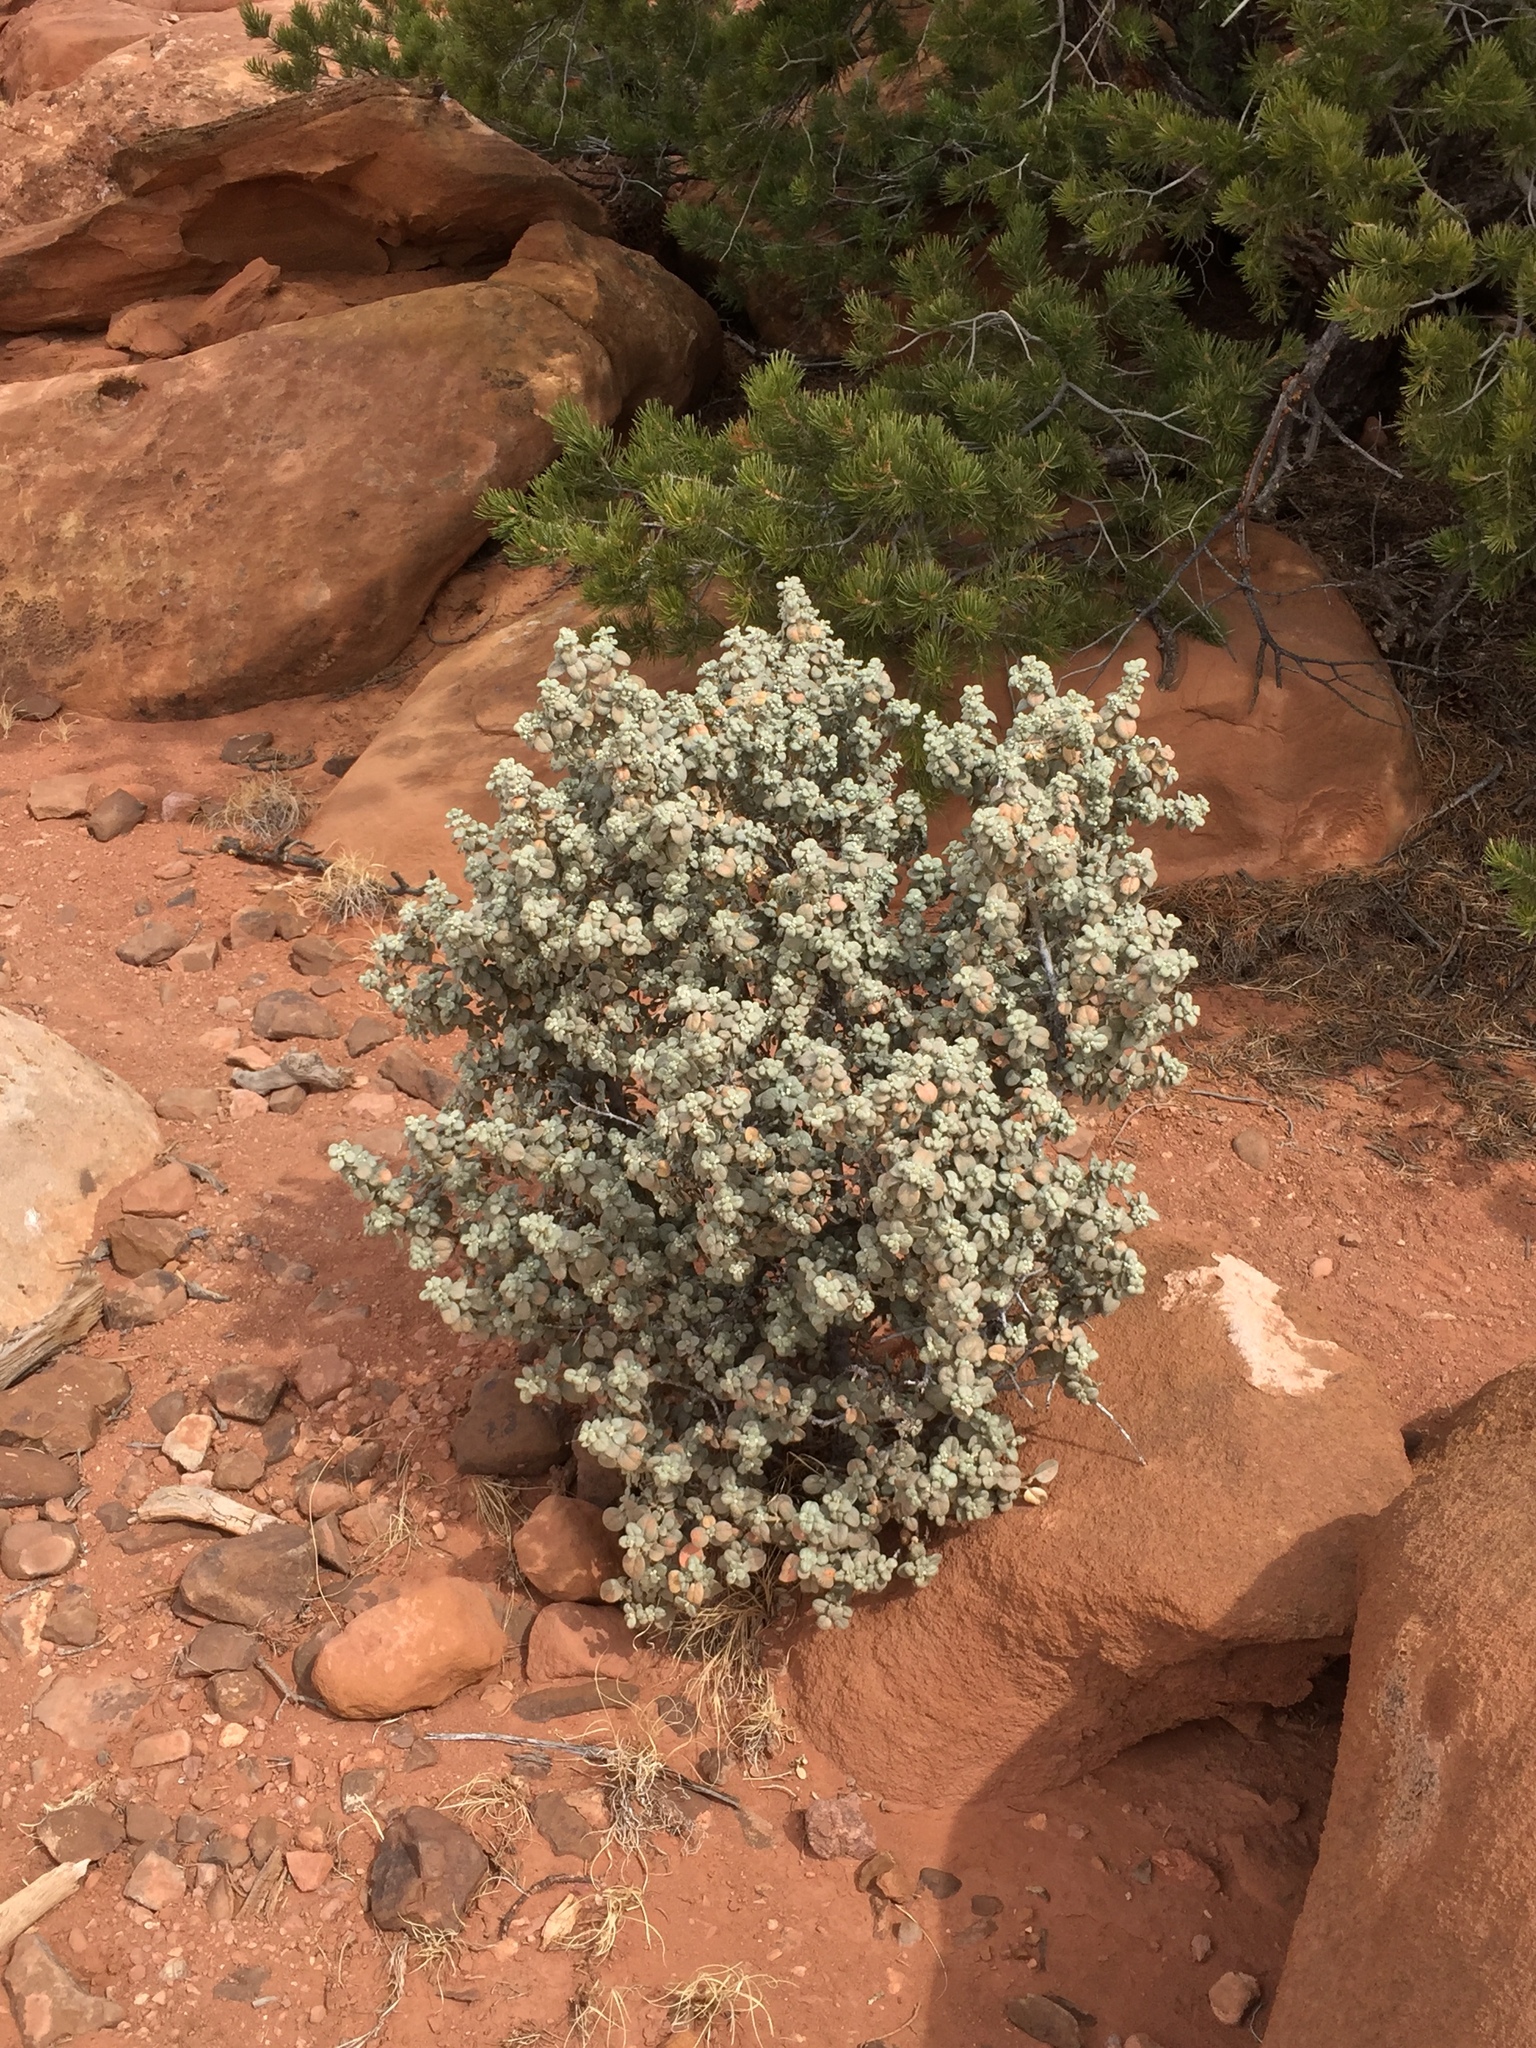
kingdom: Plantae
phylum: Tracheophyta
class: Magnoliopsida
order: Rosales
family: Elaeagnaceae
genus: Shepherdia
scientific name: Shepherdia rotundifolia
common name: Silverscale
